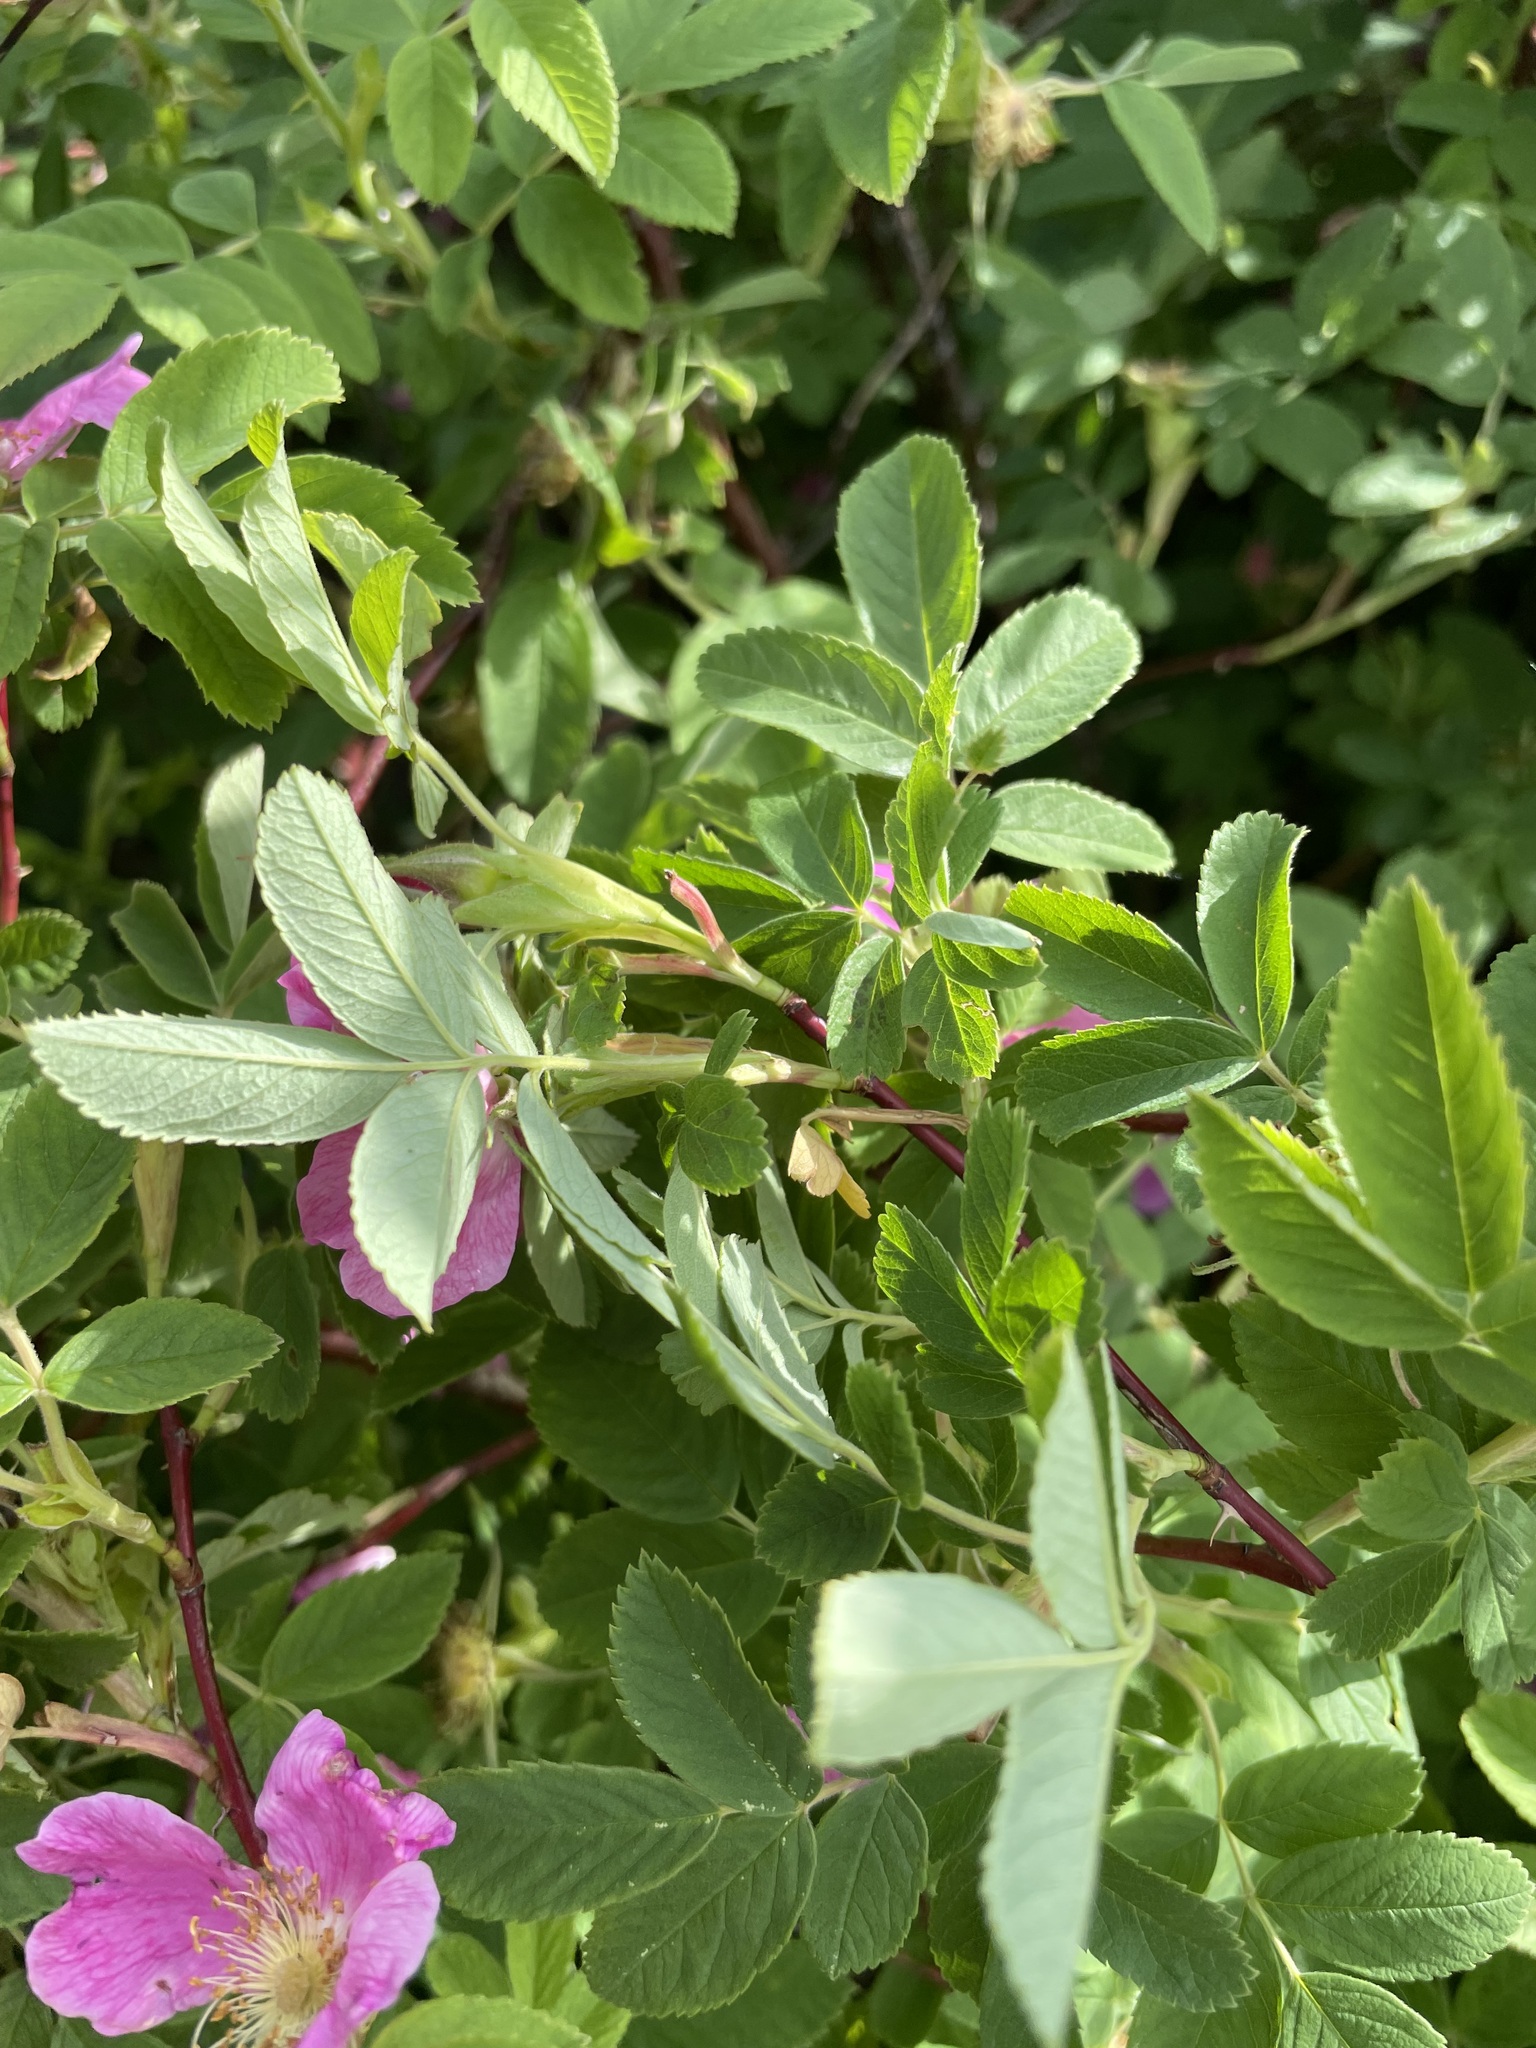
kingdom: Plantae
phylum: Tracheophyta
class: Magnoliopsida
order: Rosales
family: Rosaceae
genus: Rosa
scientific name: Rosa majalis
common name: Cinnamon rose
